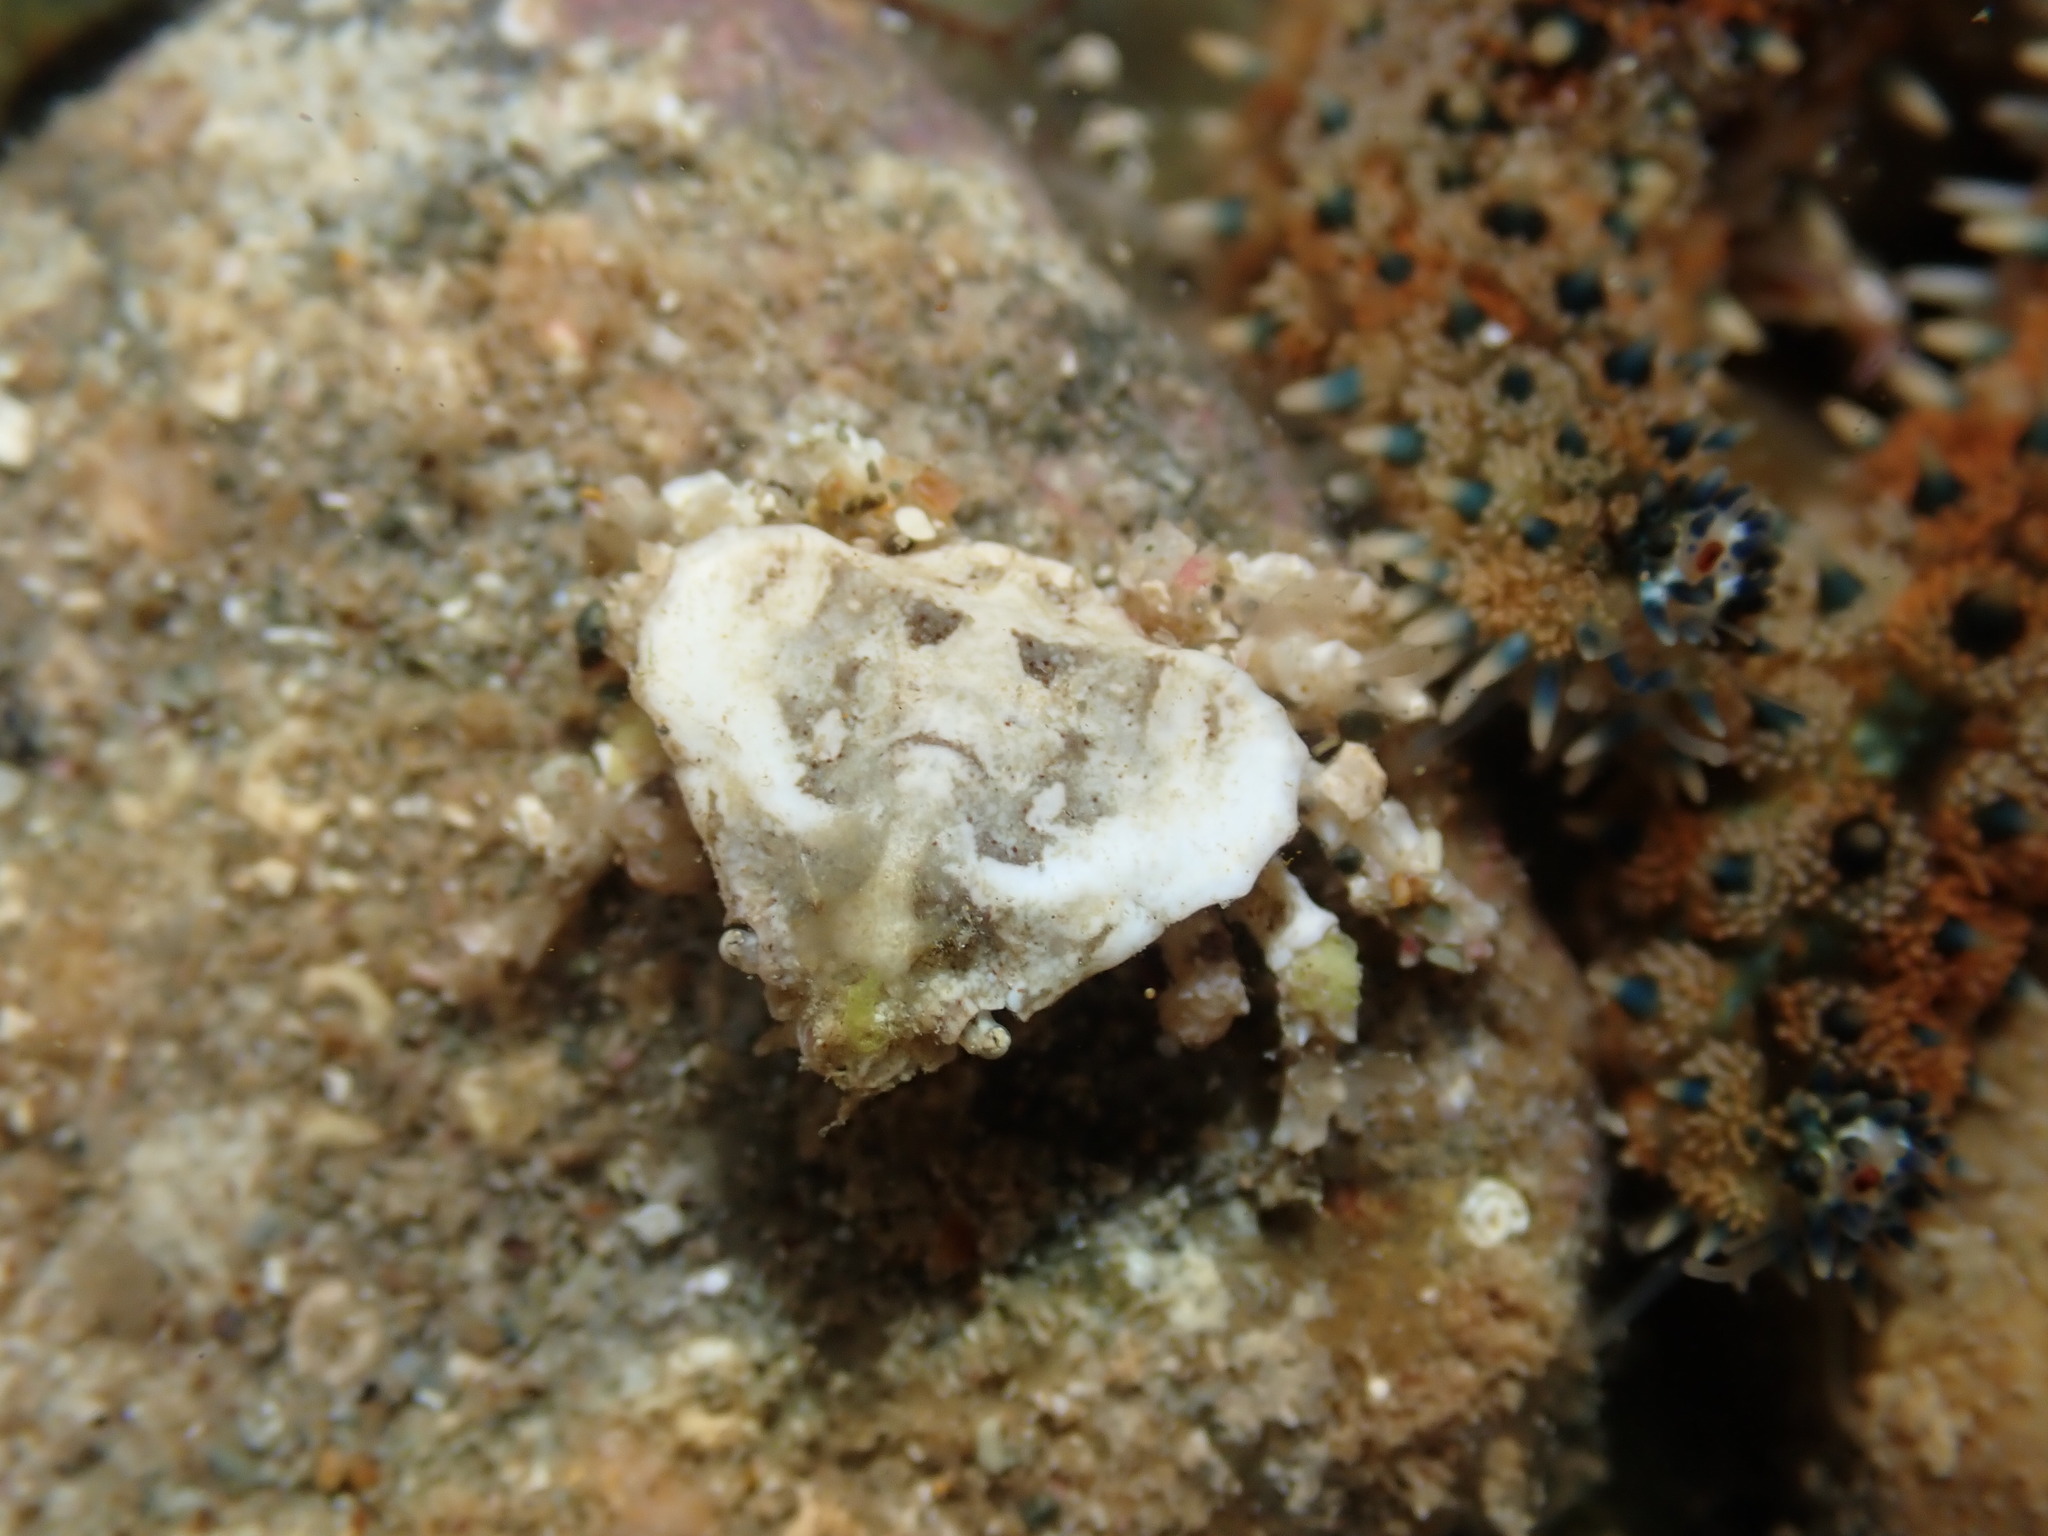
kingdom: Animalia
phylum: Arthropoda
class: Malacostraca
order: Decapoda
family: Majidae
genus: Eurynolambrus
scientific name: Eurynolambrus australis
